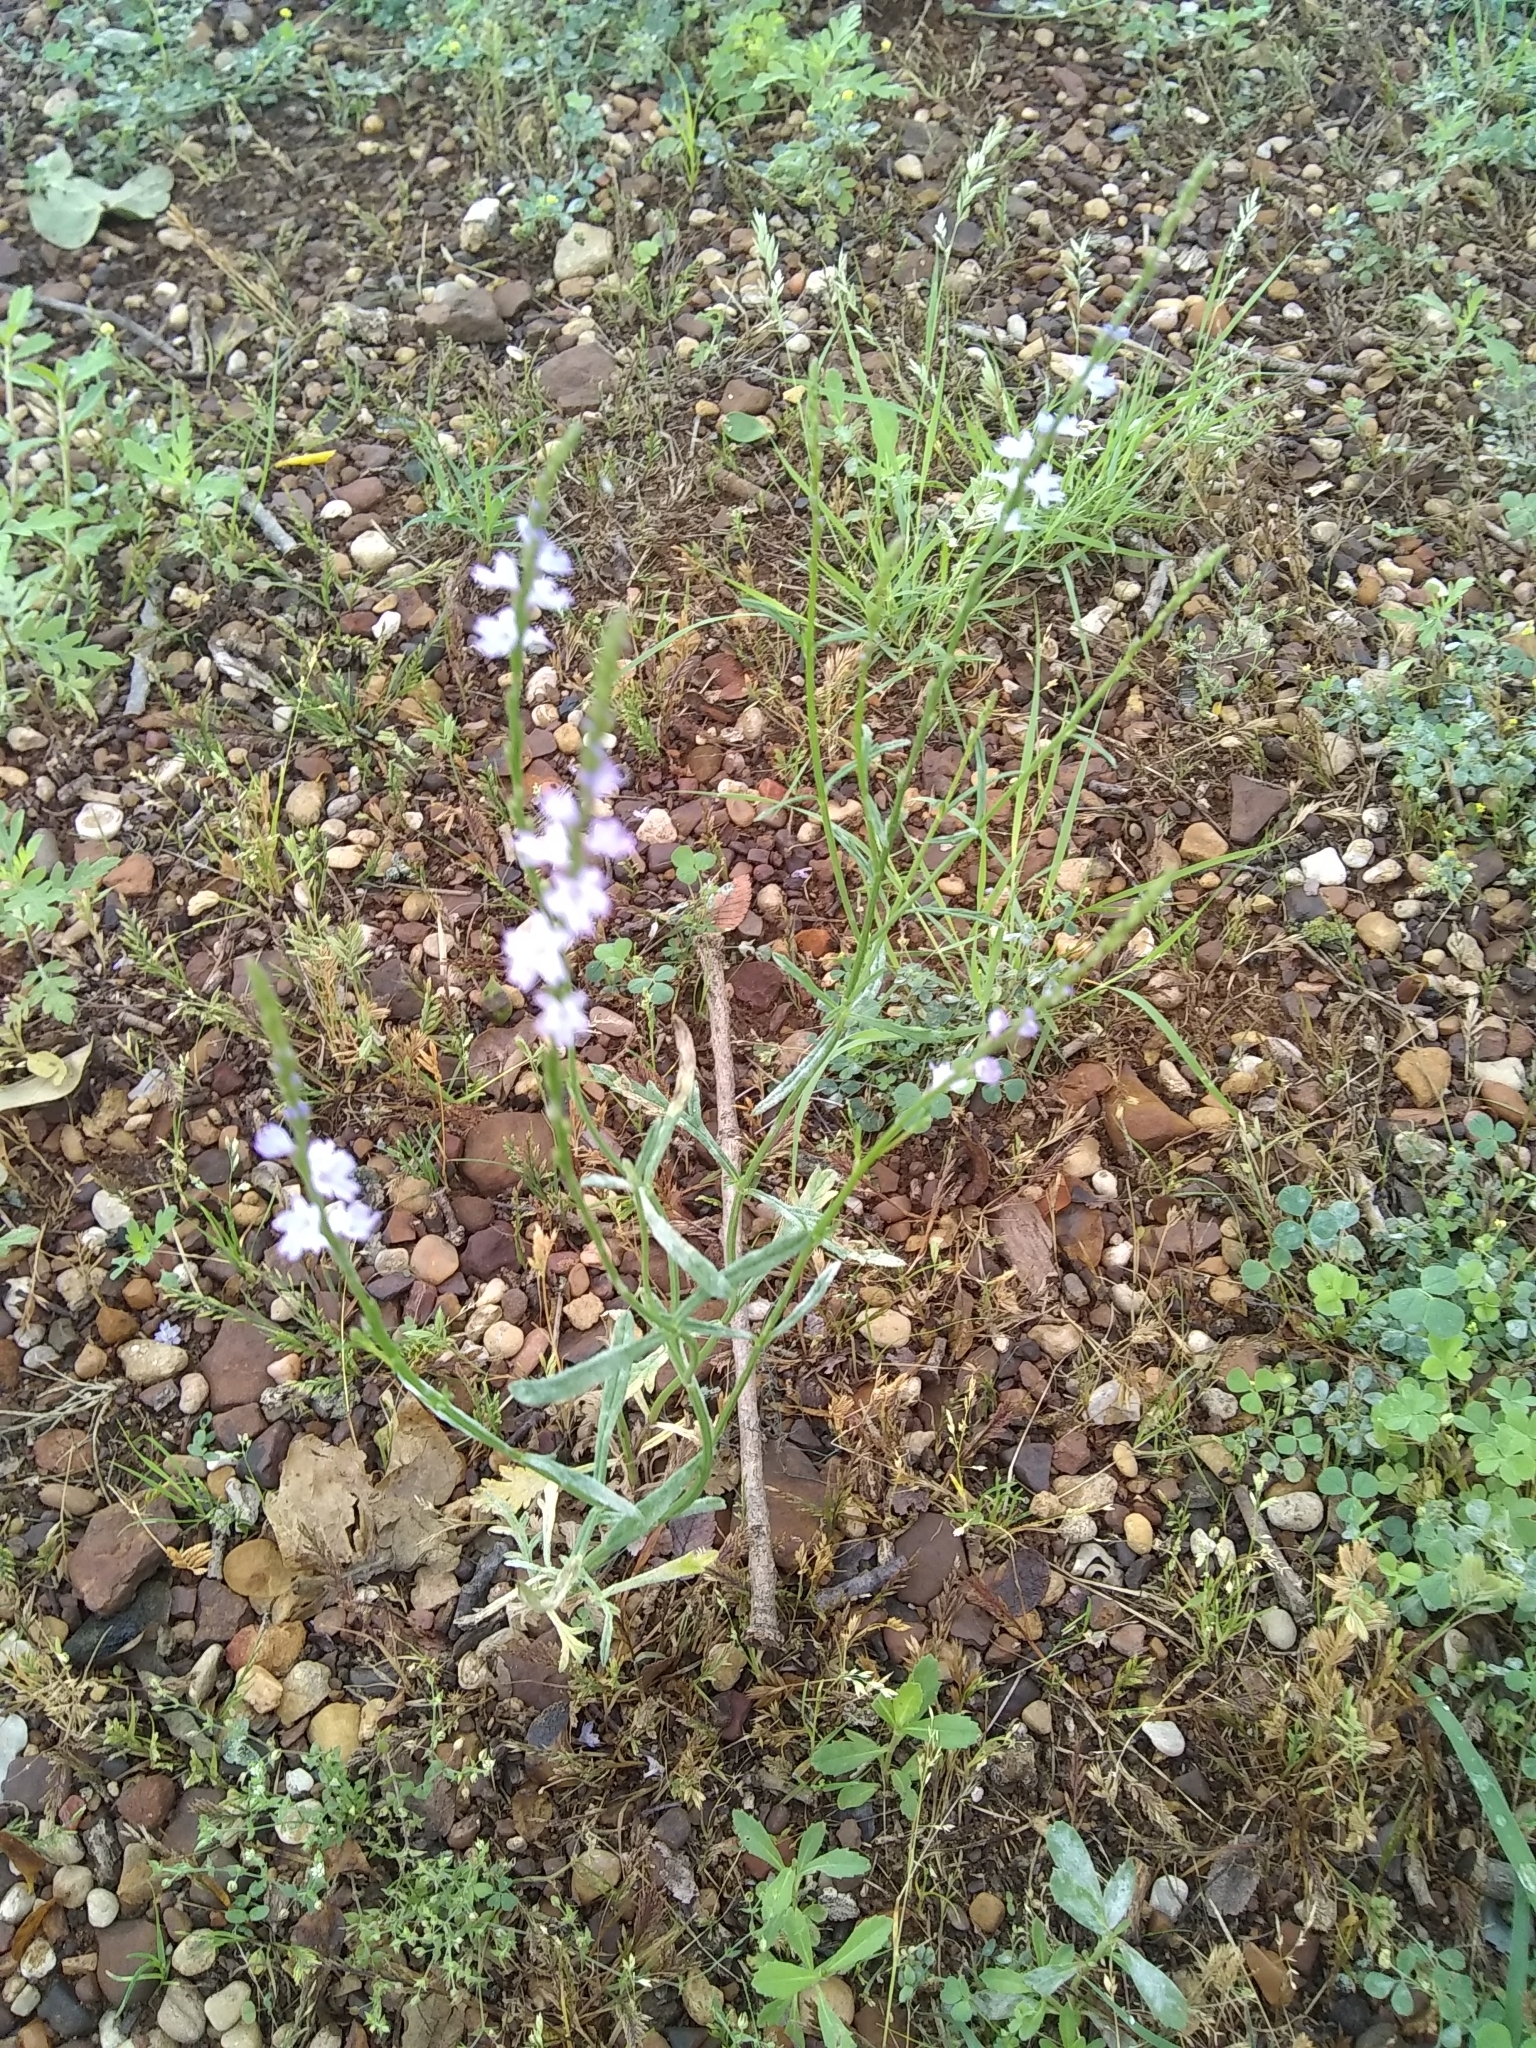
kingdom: Plantae
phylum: Tracheophyta
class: Magnoliopsida
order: Lamiales
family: Verbenaceae
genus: Verbena
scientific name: Verbena halei
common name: Texas vervain
